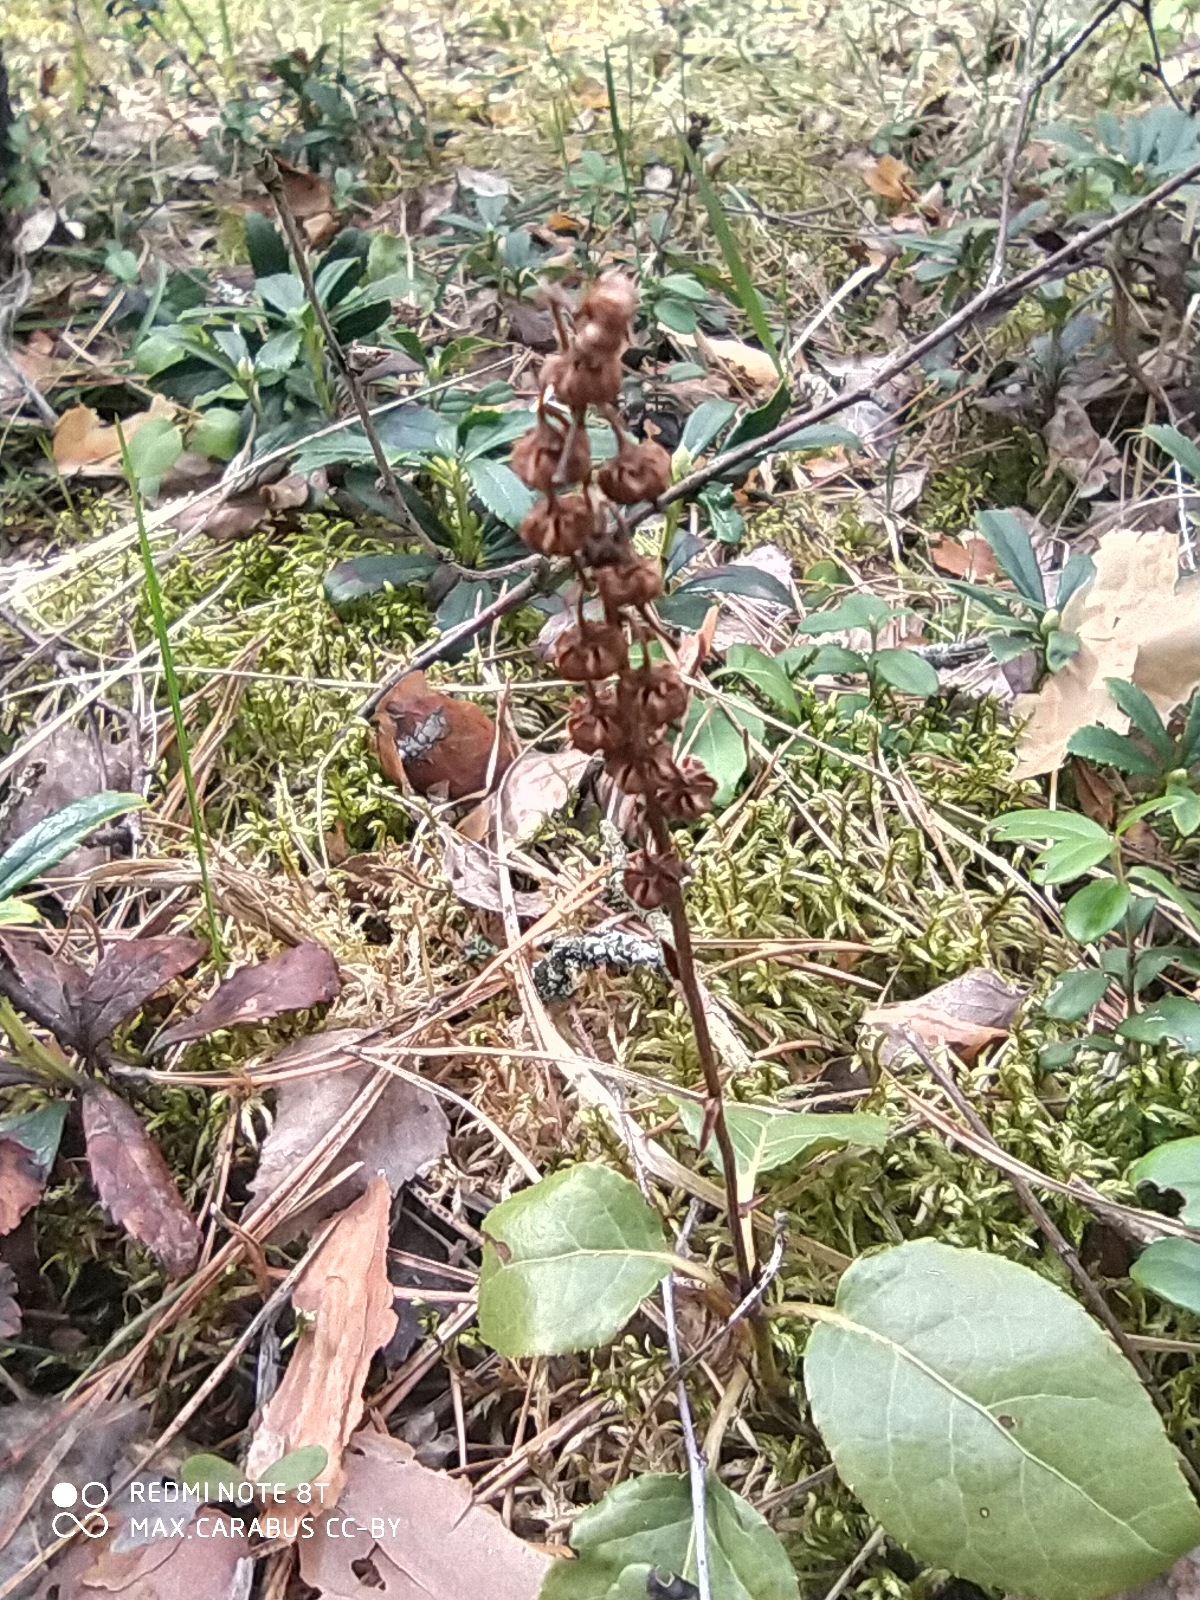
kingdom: Plantae
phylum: Tracheophyta
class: Magnoliopsida
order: Ericales
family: Ericaceae
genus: Orthilia
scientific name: Orthilia secunda
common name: One-sided orthilia
